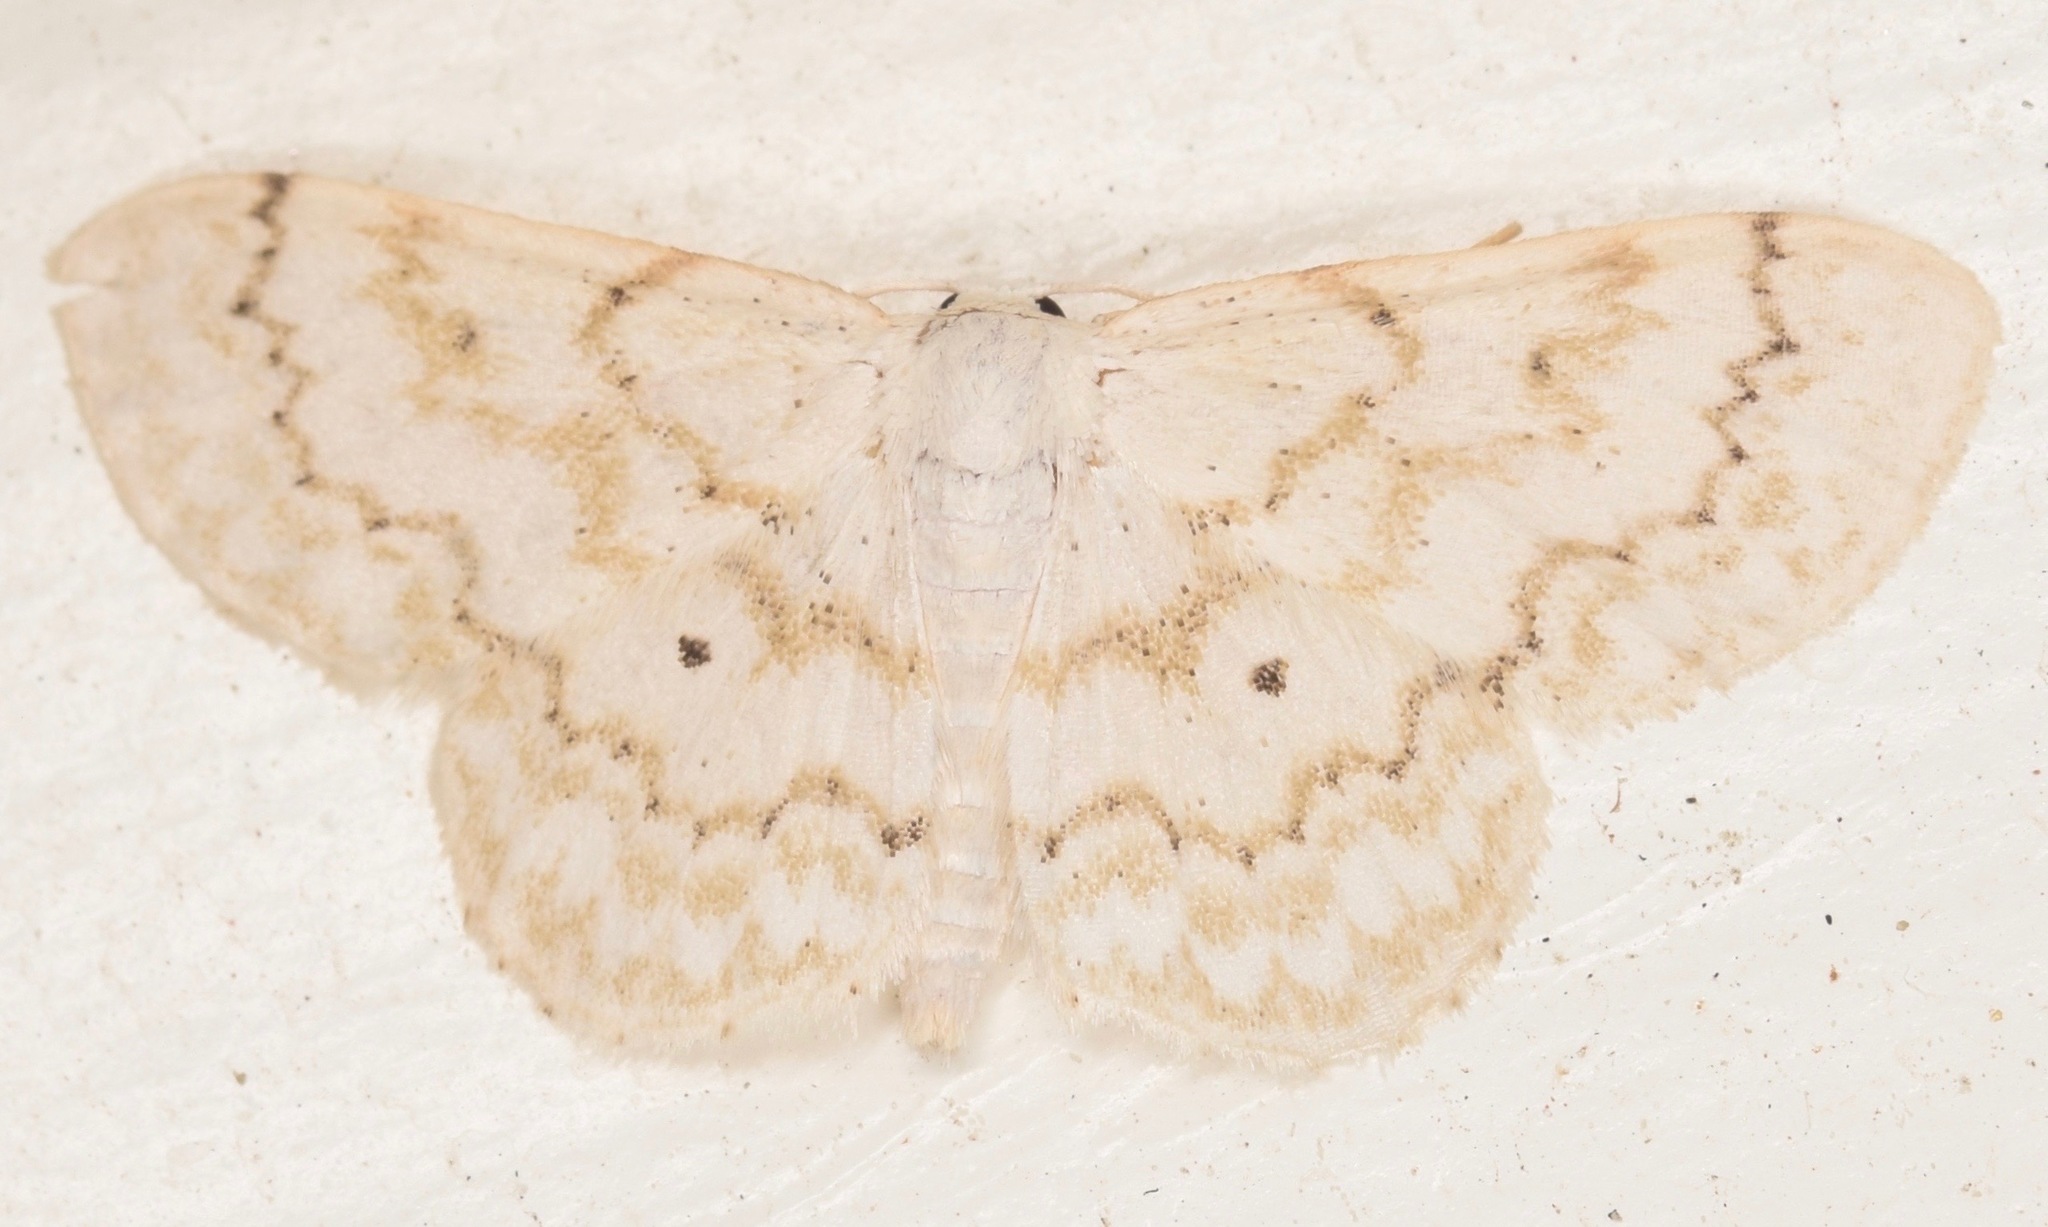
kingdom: Animalia
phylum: Arthropoda
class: Insecta
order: Lepidoptera
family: Geometridae
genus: Idaea
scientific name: Idaea obfusaria
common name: Rippled wave
